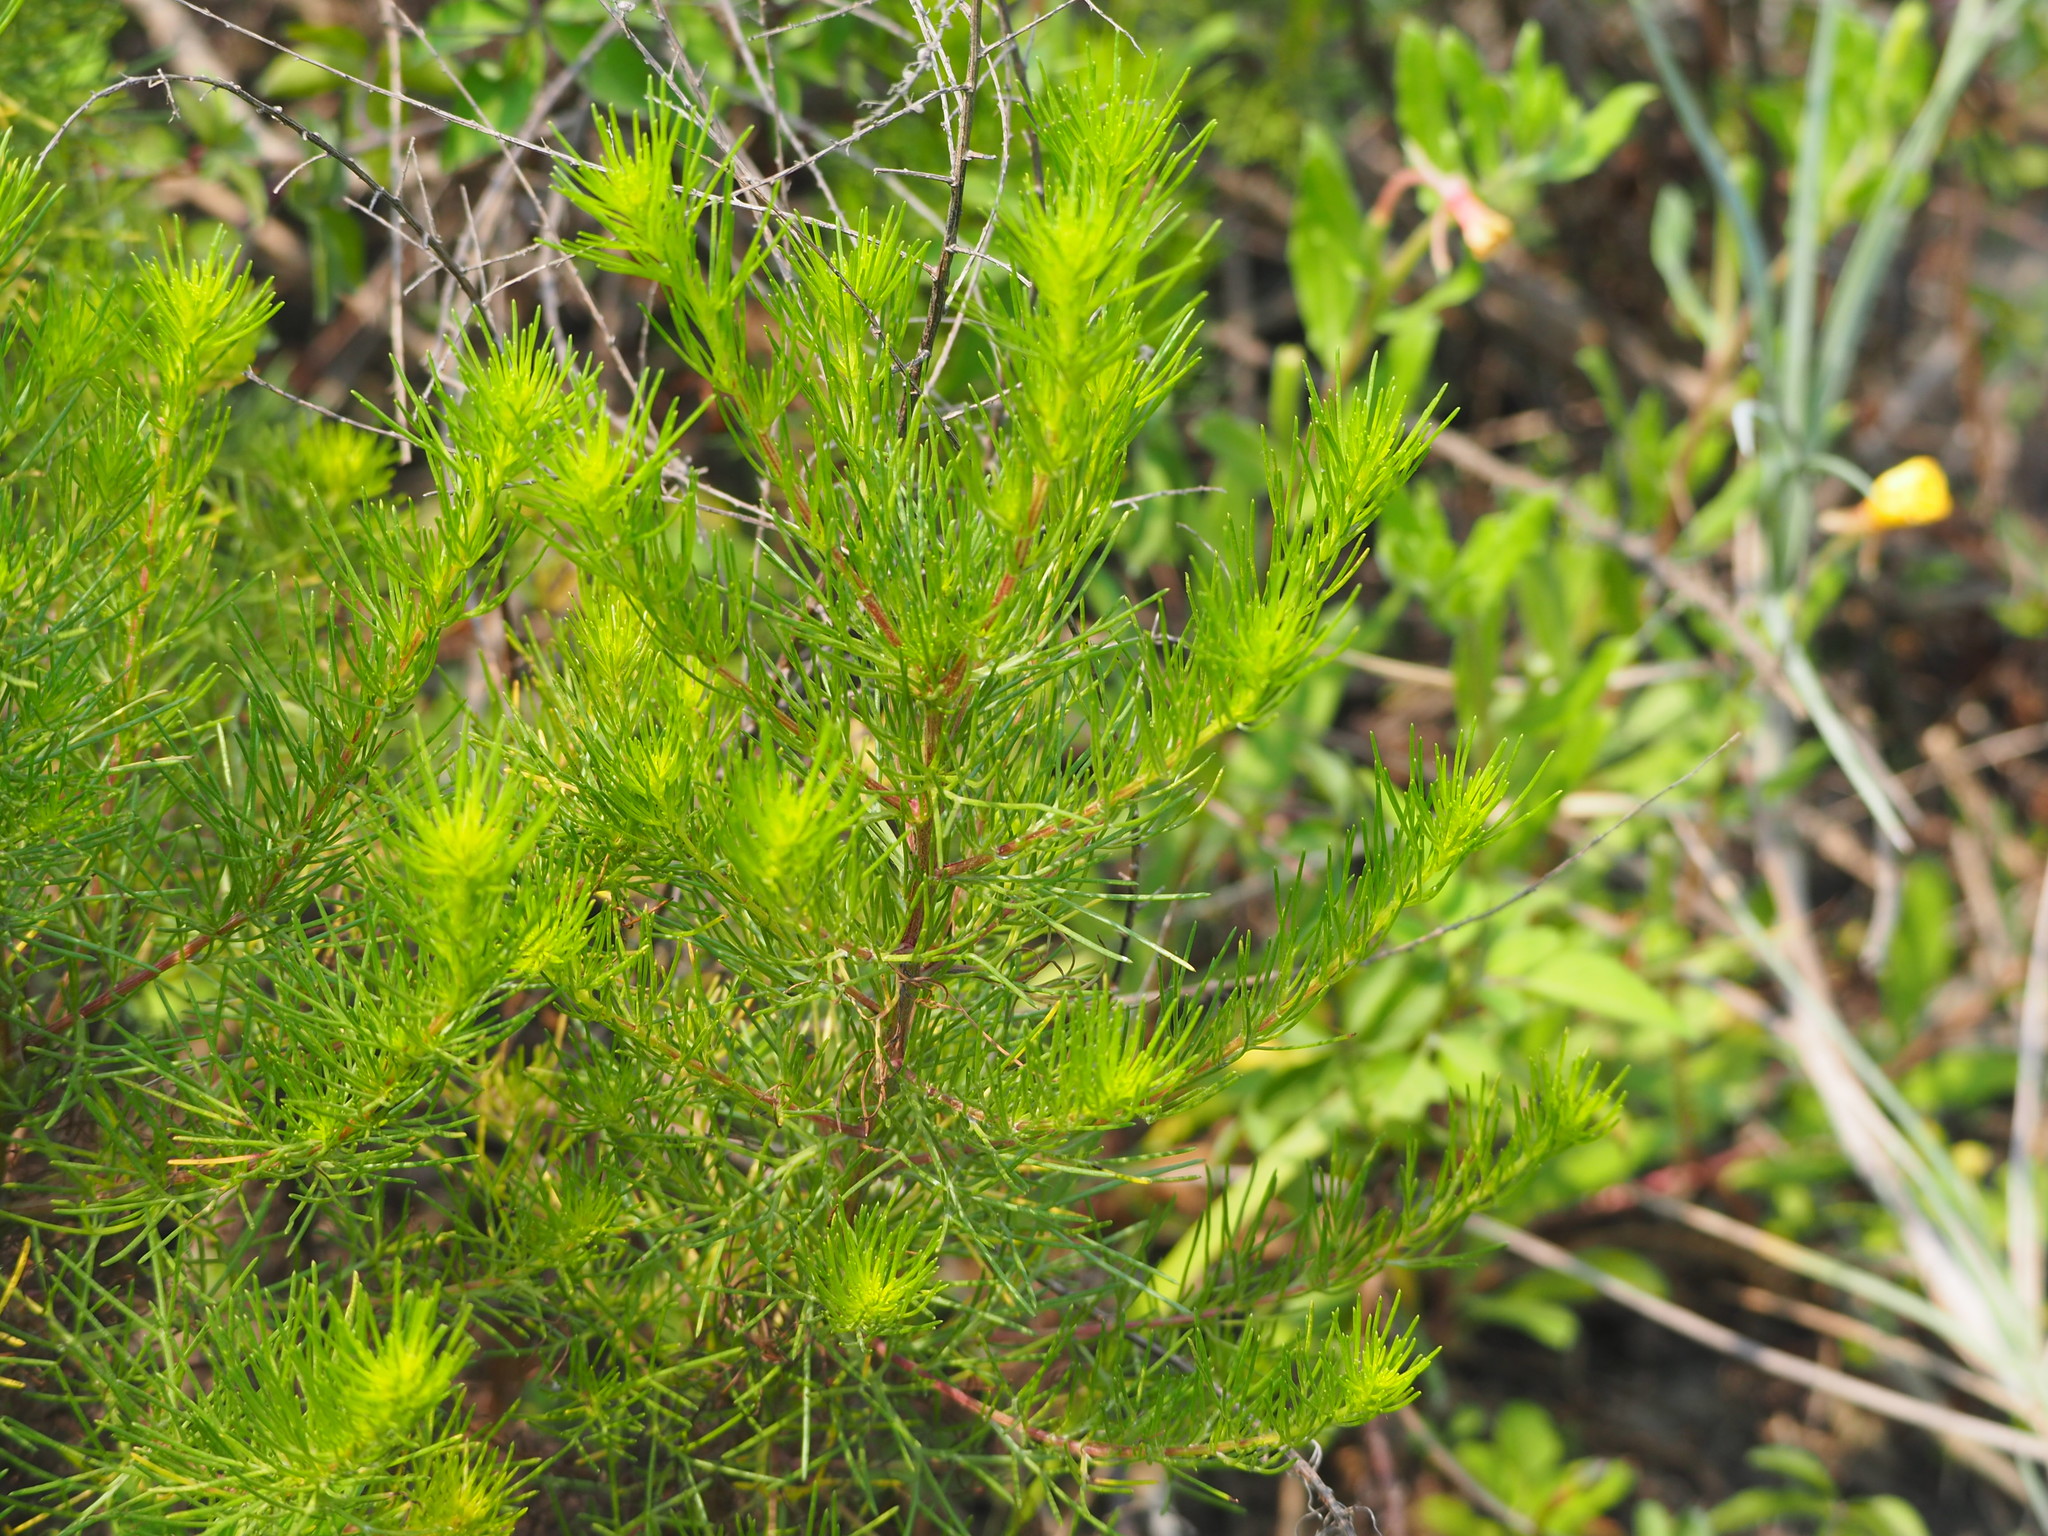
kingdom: Plantae
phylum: Tracheophyta
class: Magnoliopsida
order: Asterales
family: Asteraceae
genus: Artemisia
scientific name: Artemisia capillaris
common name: Yin-chen wormwood
